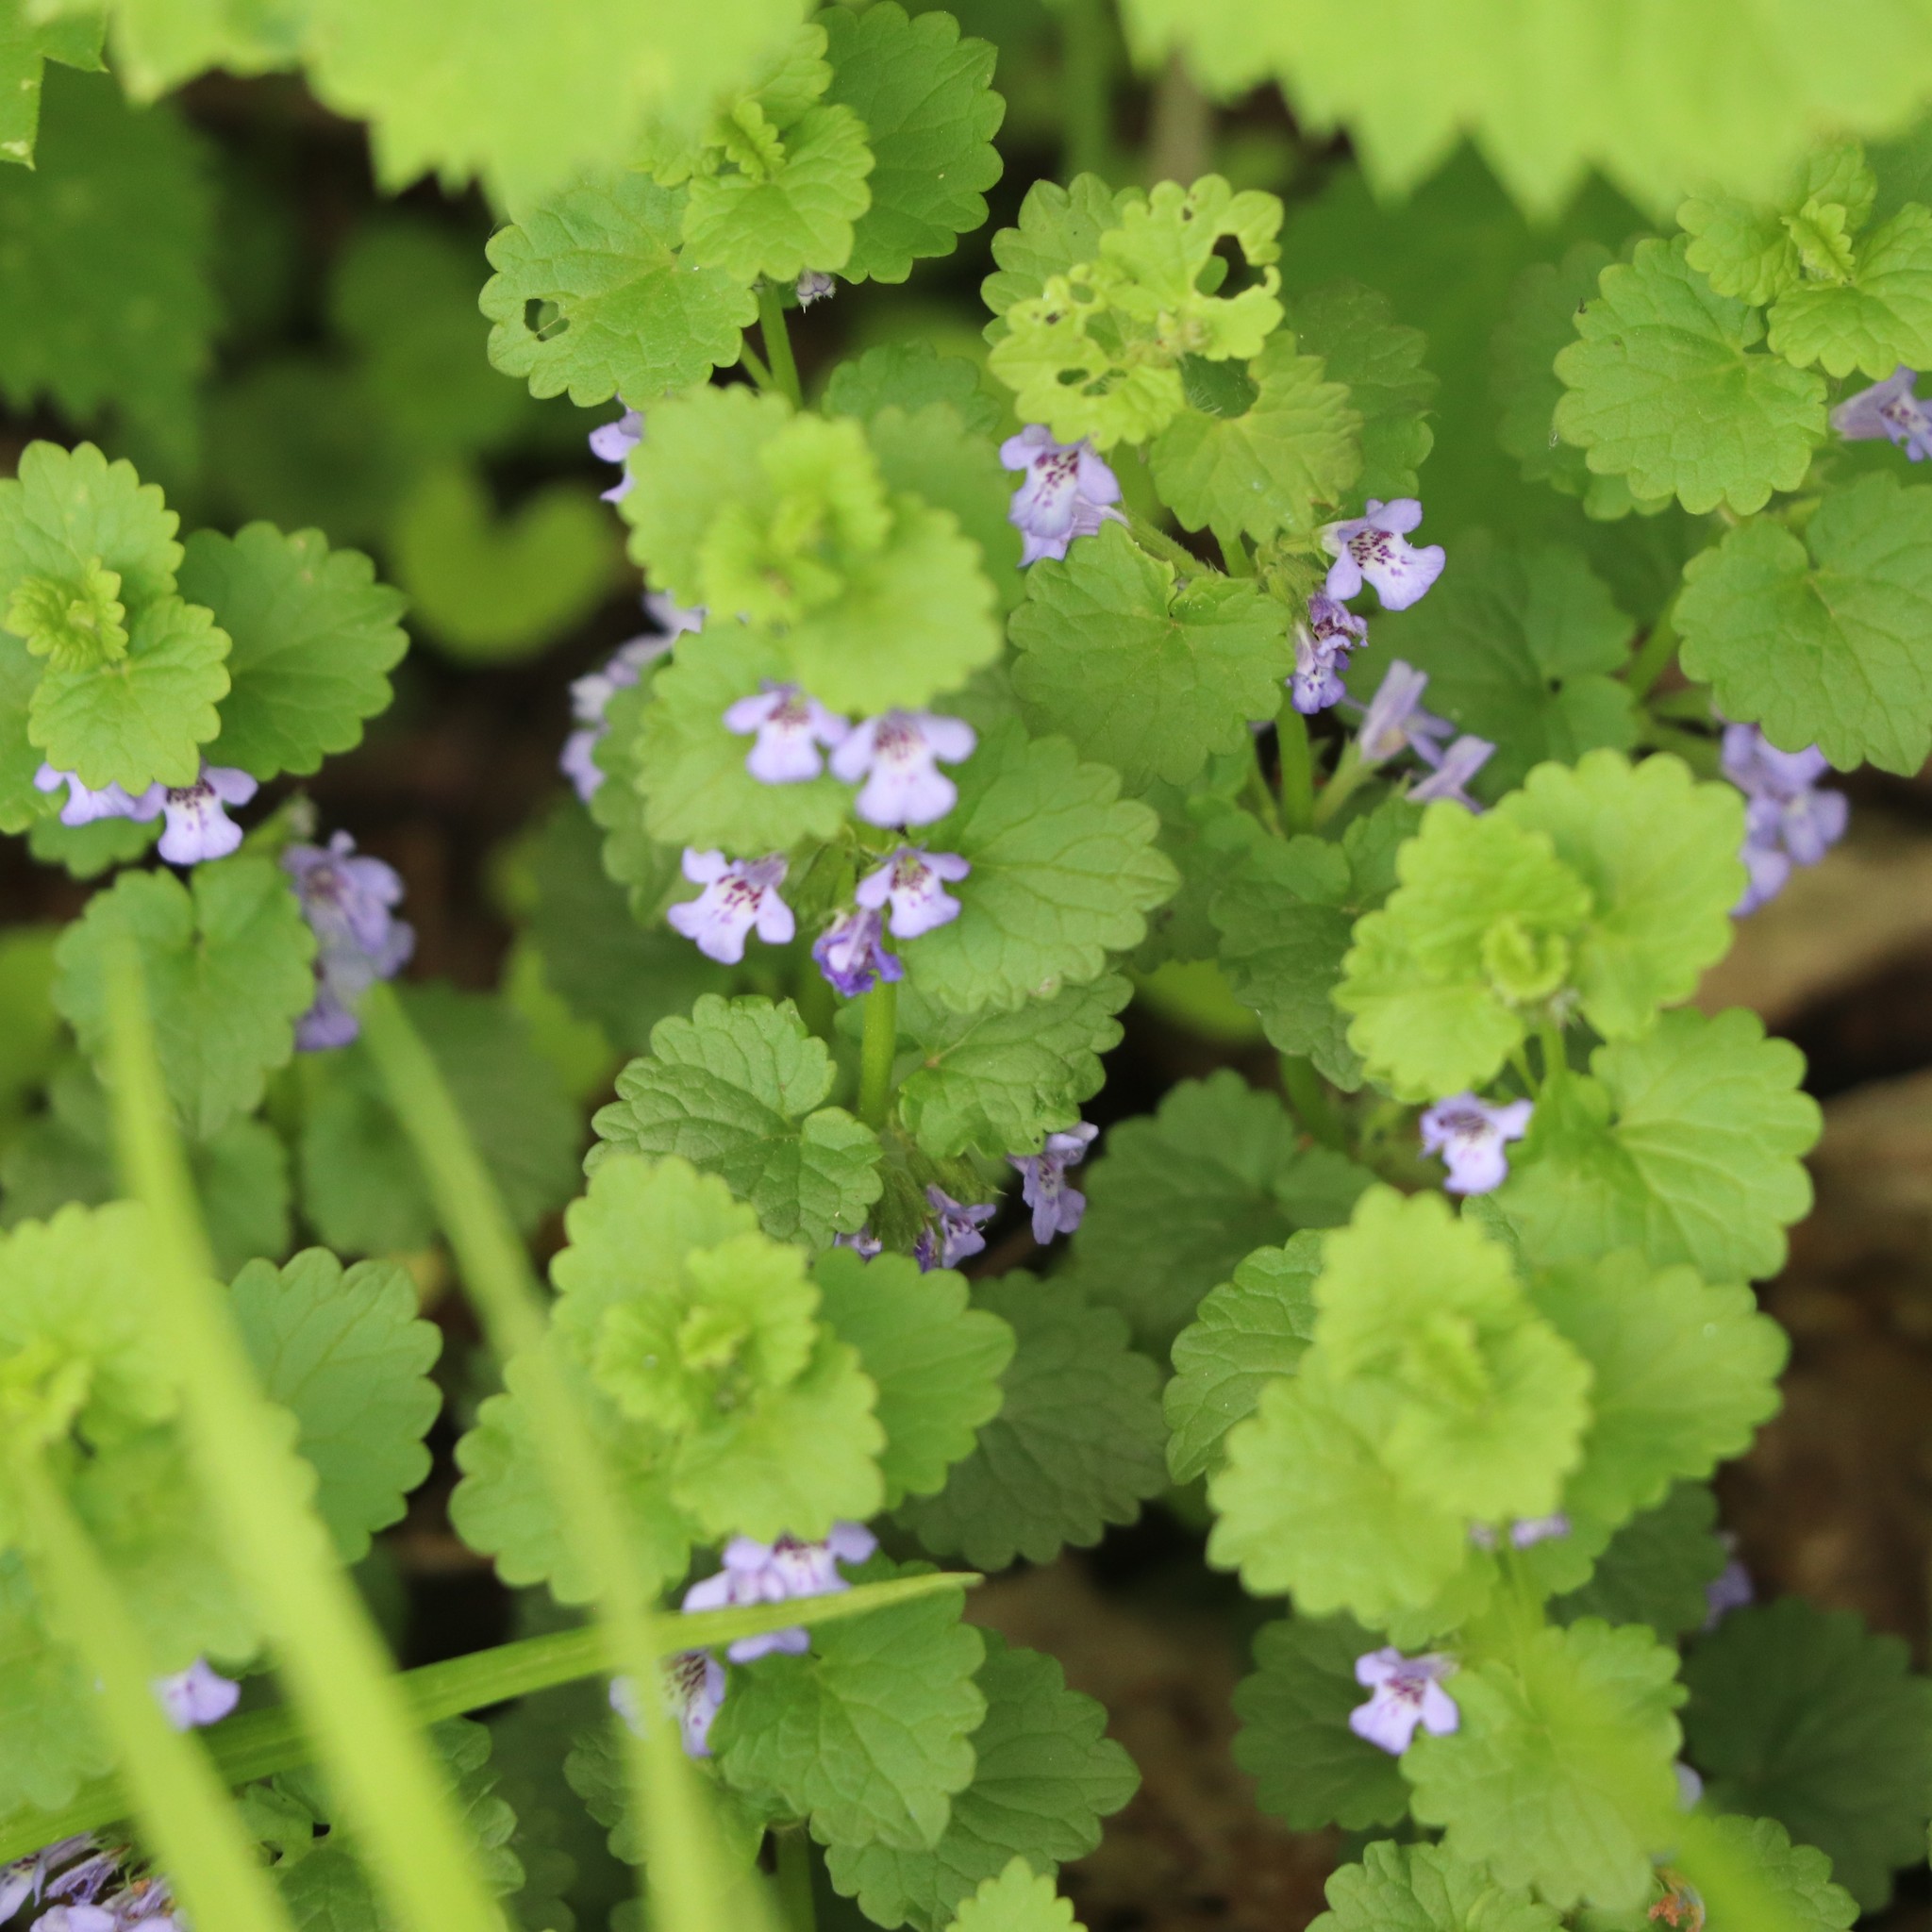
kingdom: Plantae
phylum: Tracheophyta
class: Magnoliopsida
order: Lamiales
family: Lamiaceae
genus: Glechoma
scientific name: Glechoma hederacea
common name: Ground ivy
